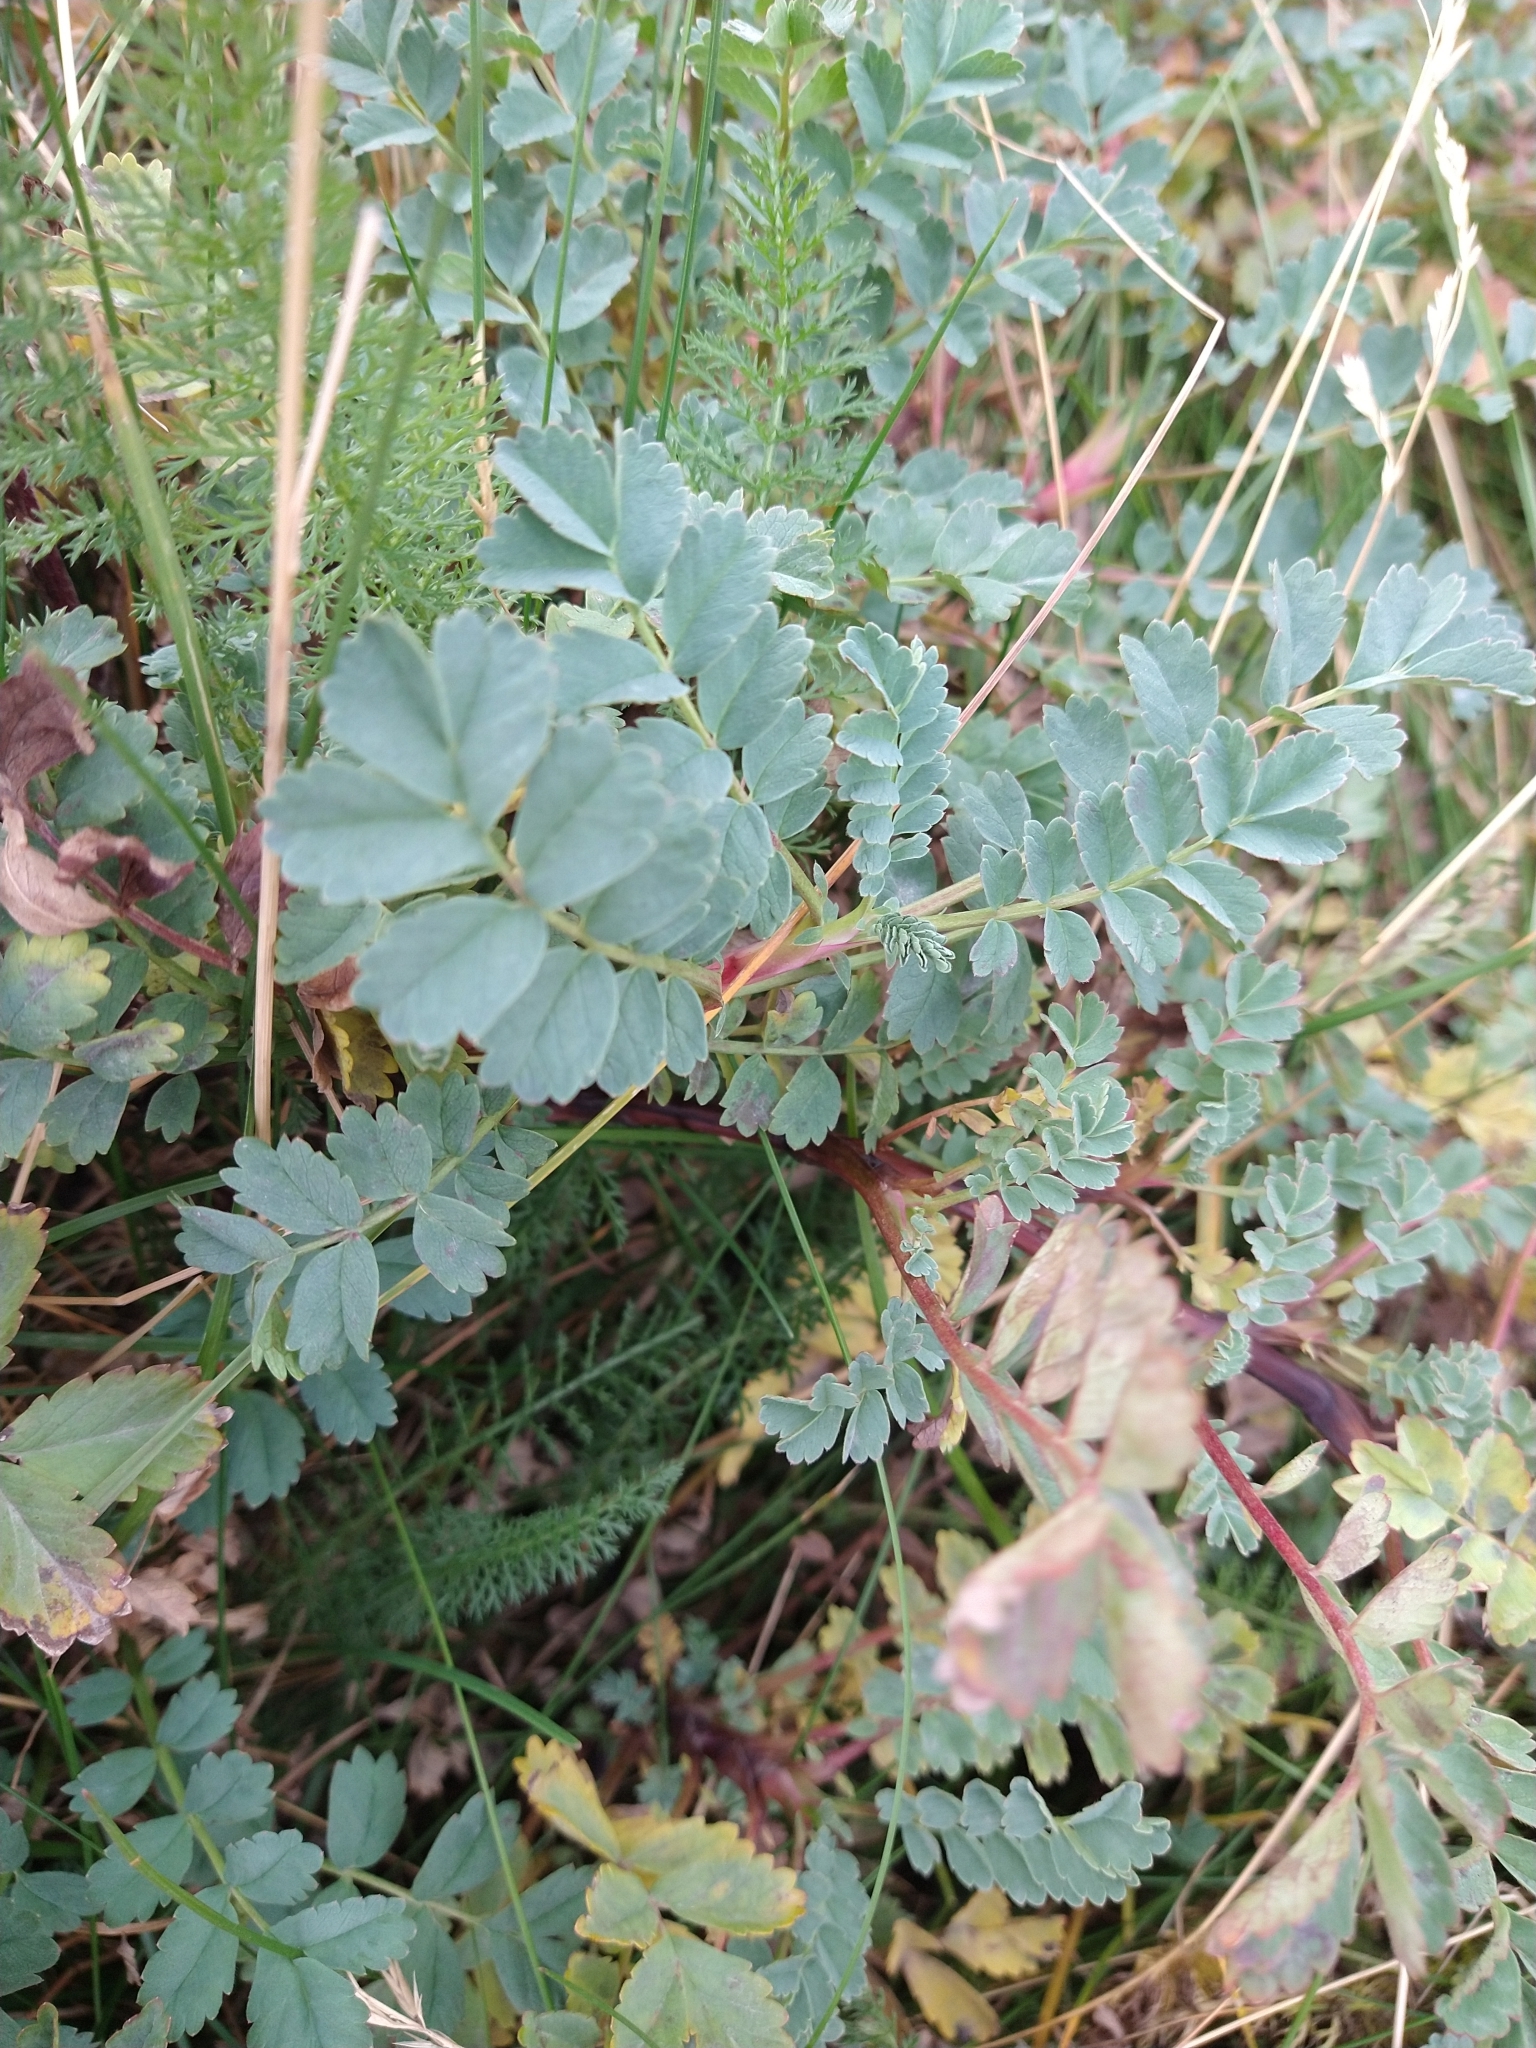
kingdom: Plantae
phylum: Tracheophyta
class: Magnoliopsida
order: Rosales
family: Rosaceae
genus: Acaena
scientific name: Acaena magellanica
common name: New zealand burr
